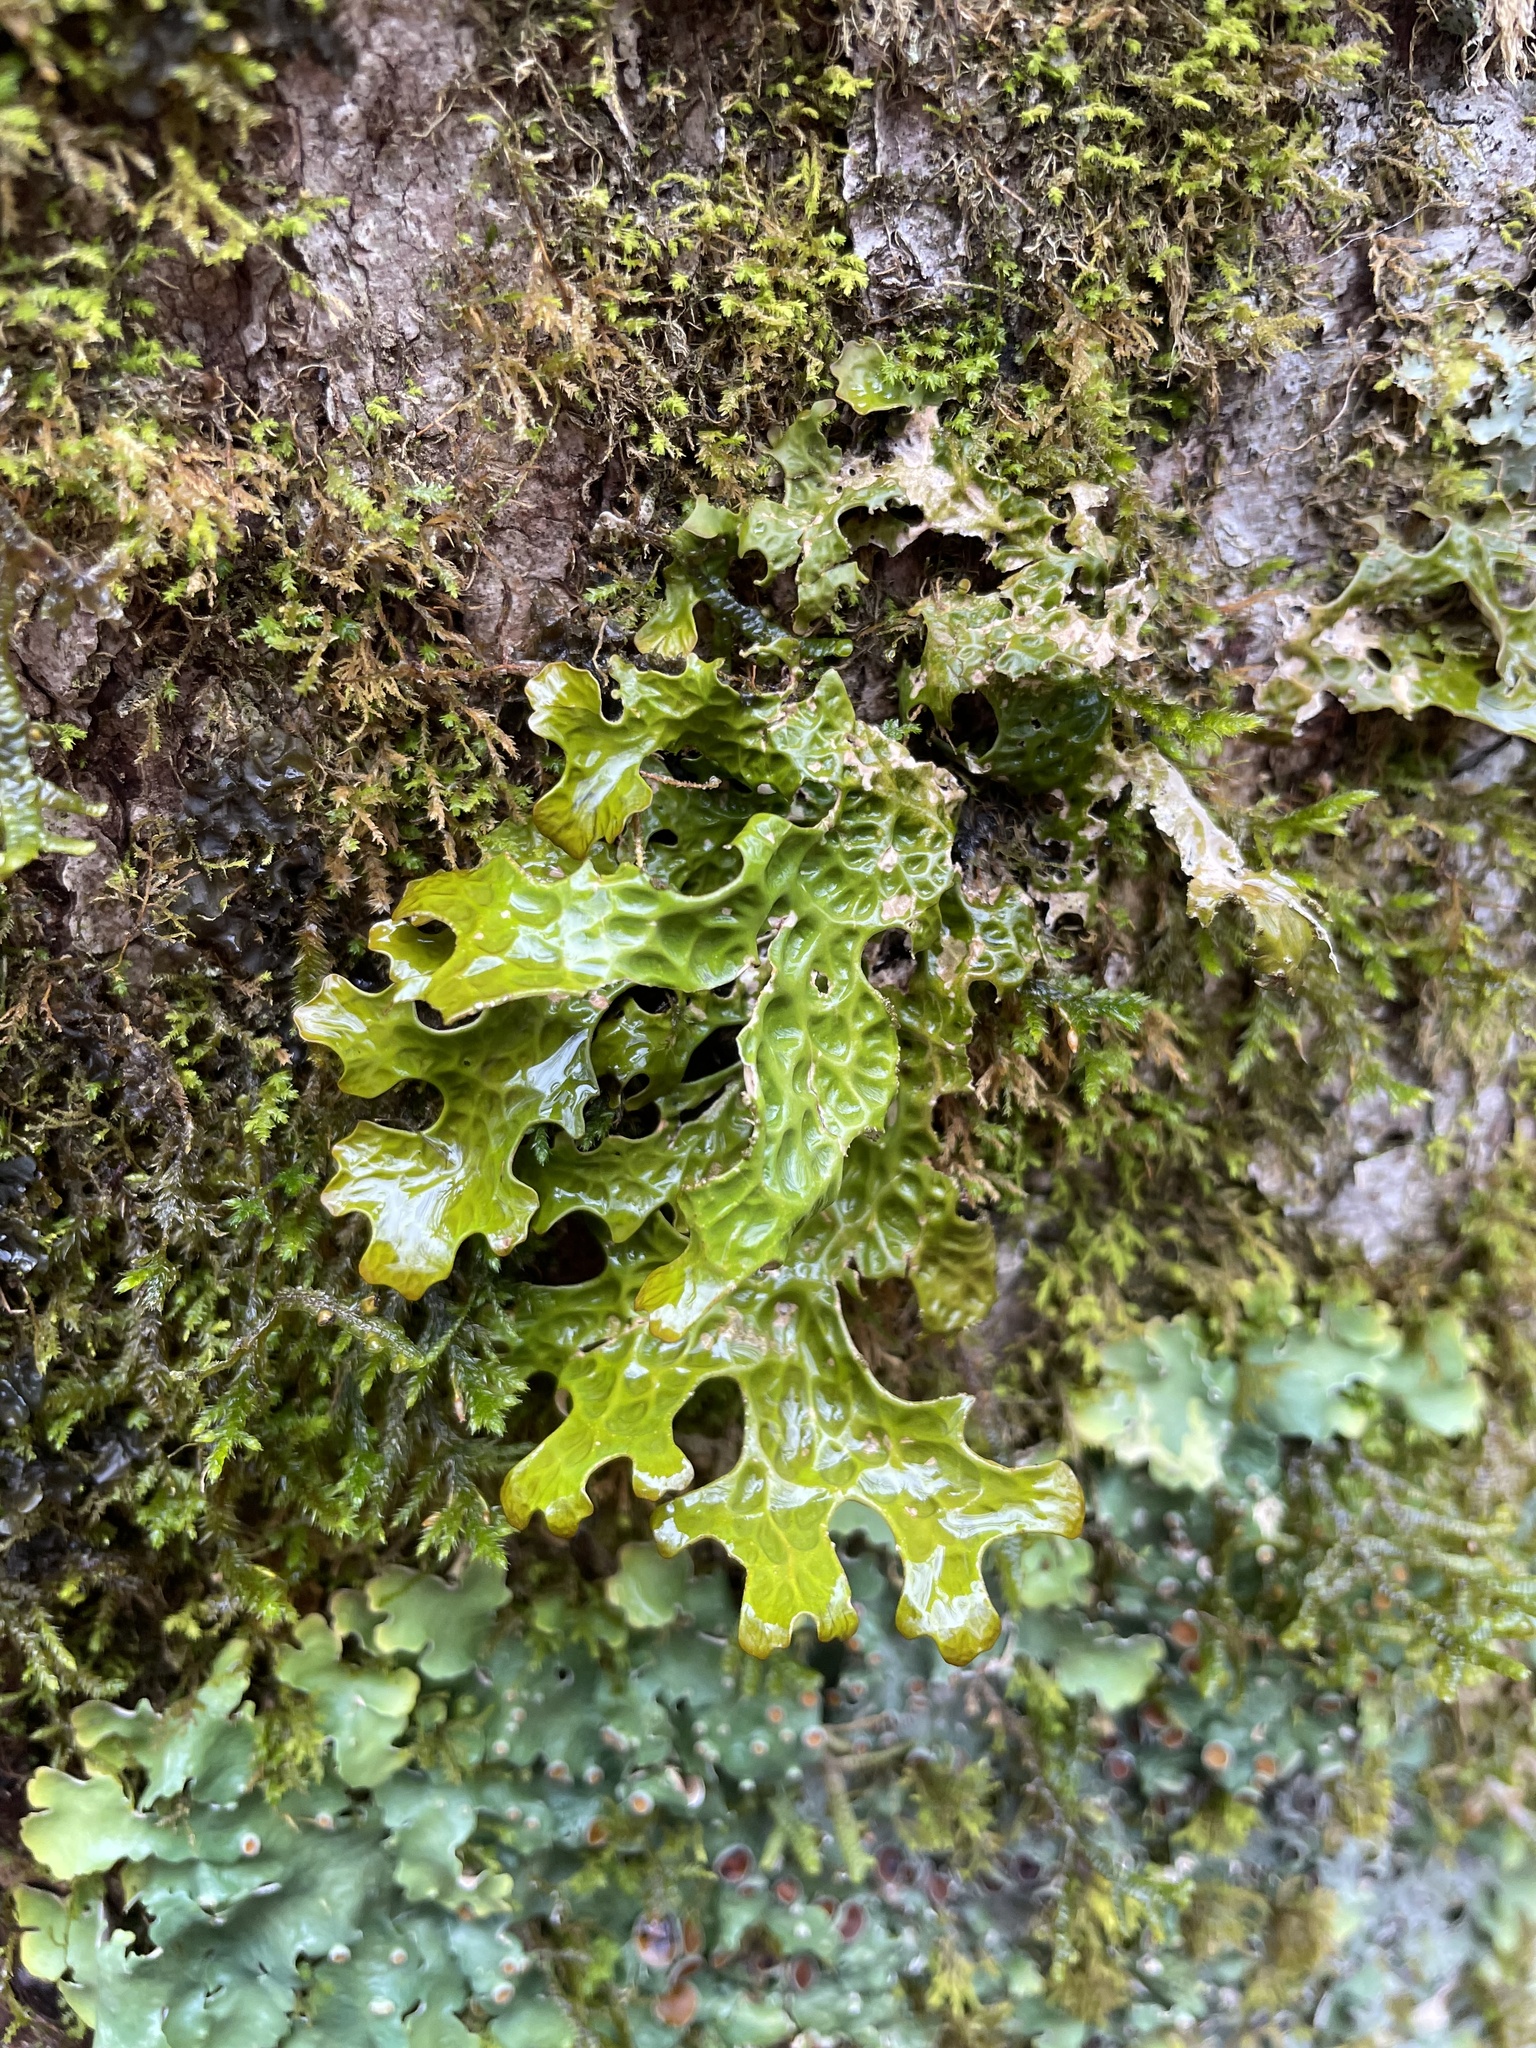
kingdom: Fungi
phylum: Ascomycota
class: Lecanoromycetes
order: Peltigerales
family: Lobariaceae
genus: Lobaria
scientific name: Lobaria pulmonaria
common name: Lungwort
